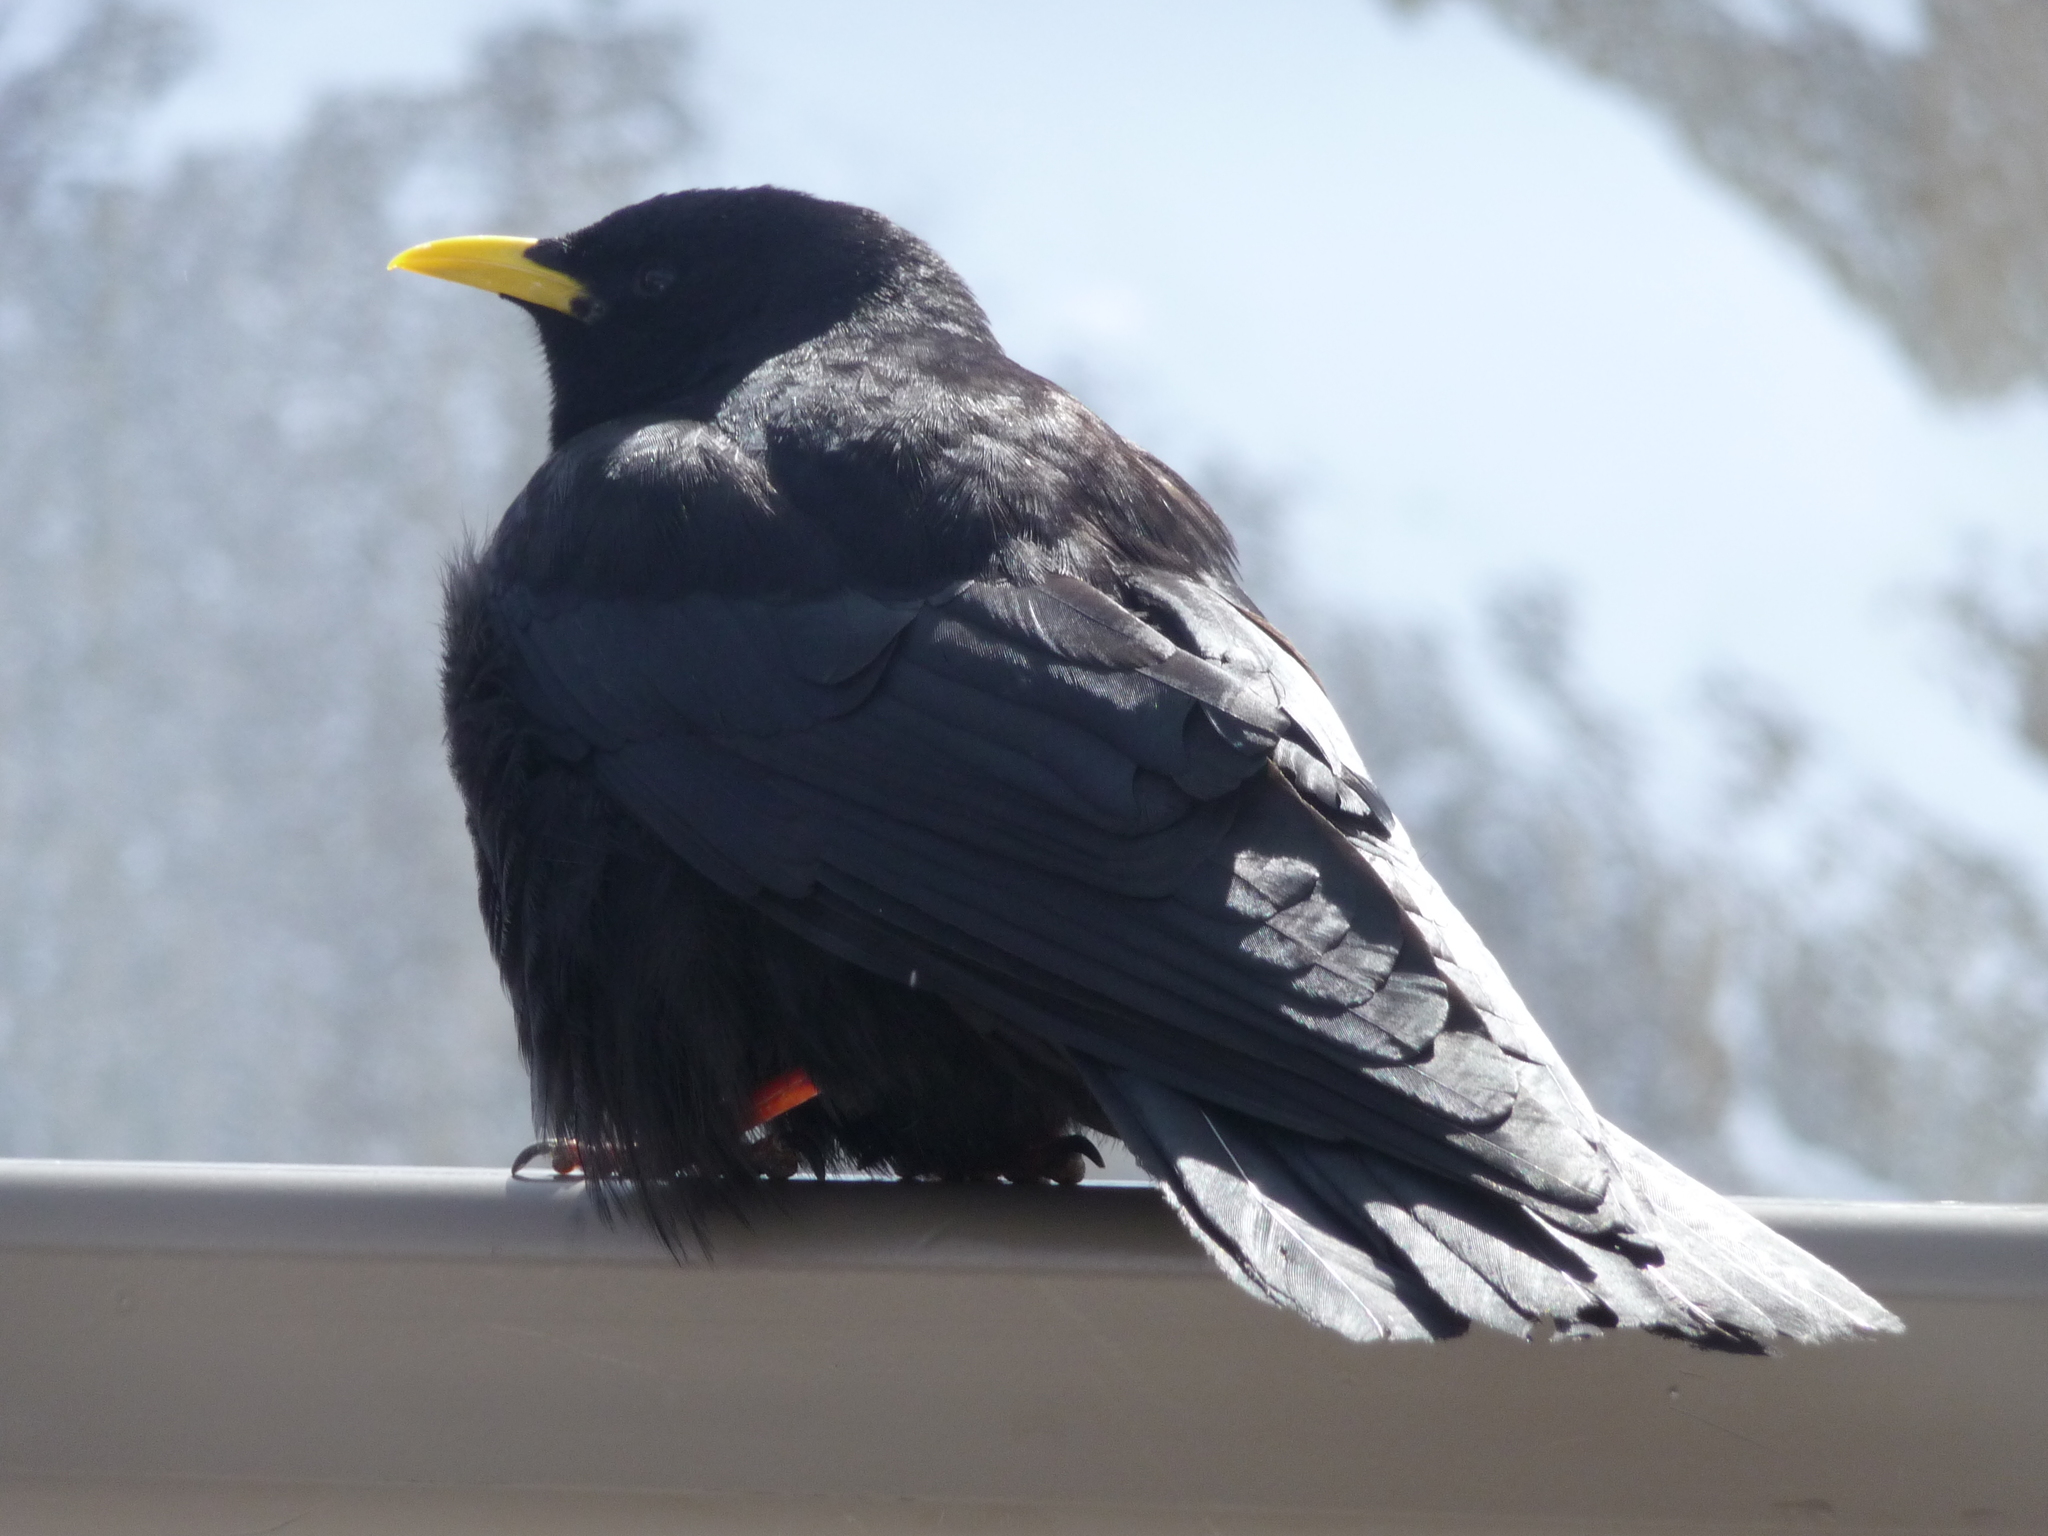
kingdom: Animalia
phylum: Chordata
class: Aves
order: Passeriformes
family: Corvidae
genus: Pyrrhocorax
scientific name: Pyrrhocorax graculus
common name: Alpine chough
